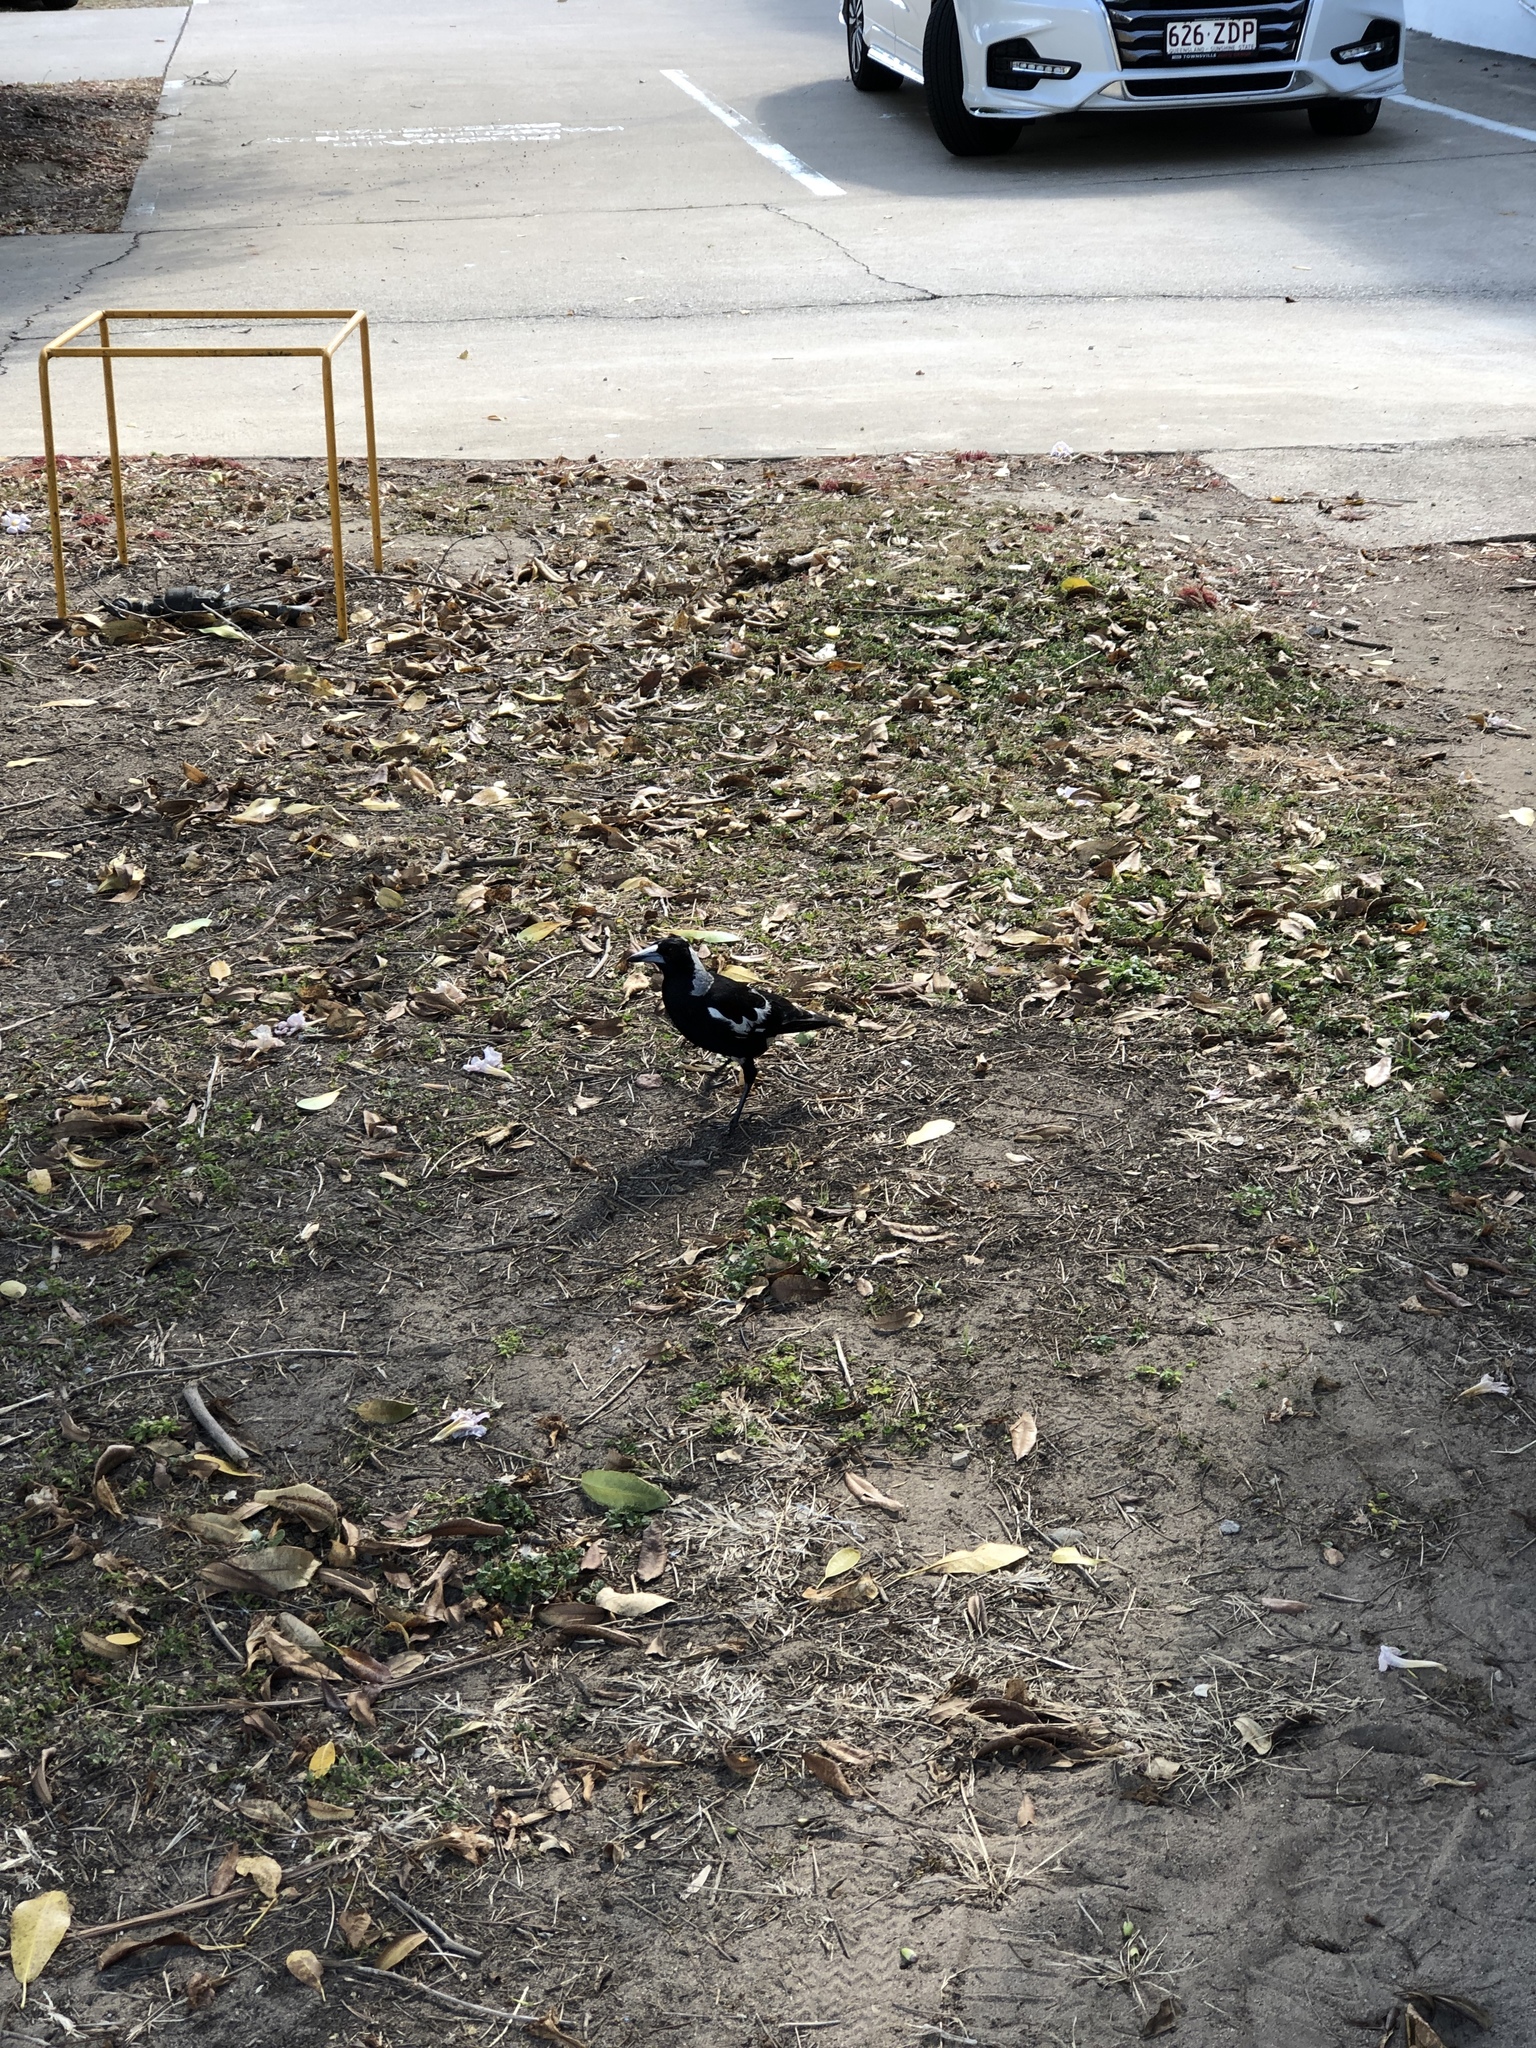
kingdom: Animalia
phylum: Chordata
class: Aves
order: Passeriformes
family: Cracticidae
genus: Gymnorhina
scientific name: Gymnorhina tibicen
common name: Australian magpie
